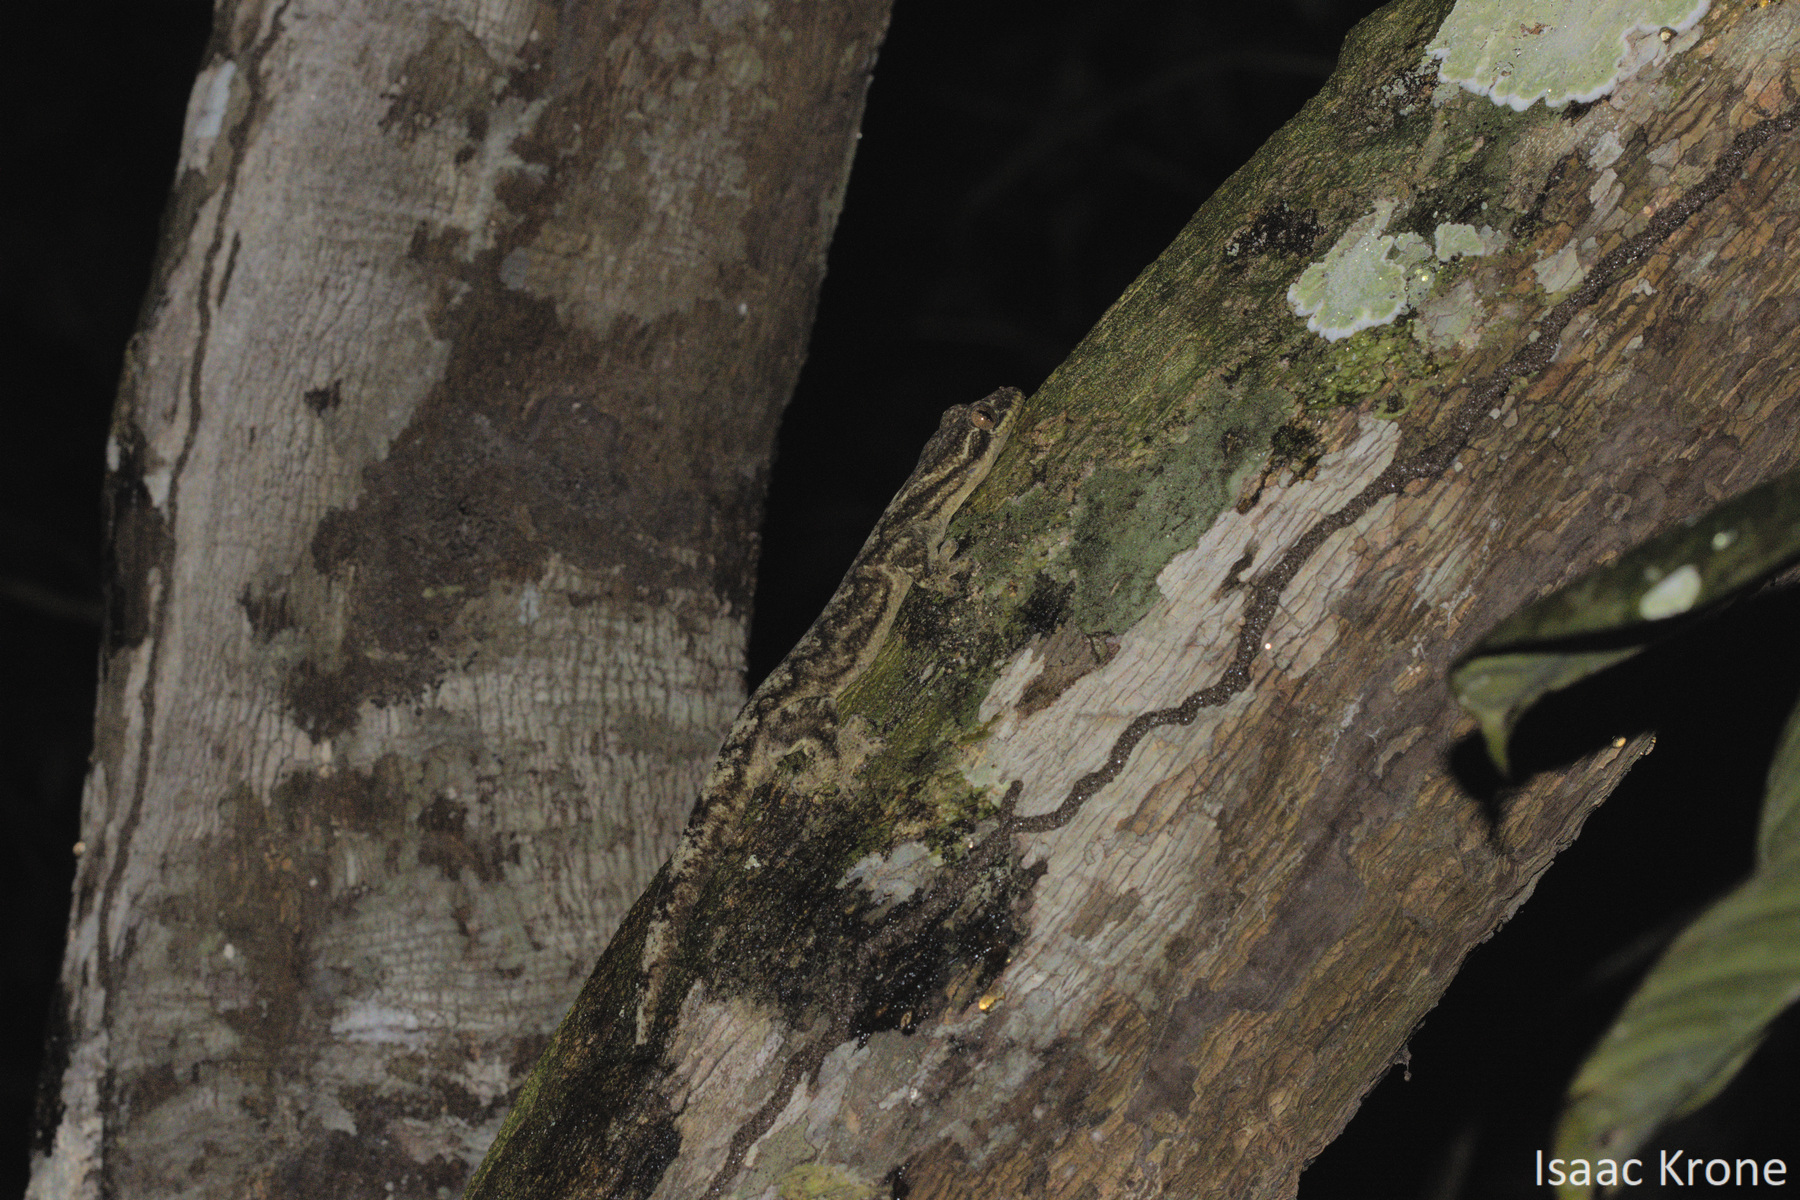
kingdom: Animalia
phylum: Chordata
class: Squamata
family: Phyllodactylidae
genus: Thecadactylus
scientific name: Thecadactylus solimoensis
